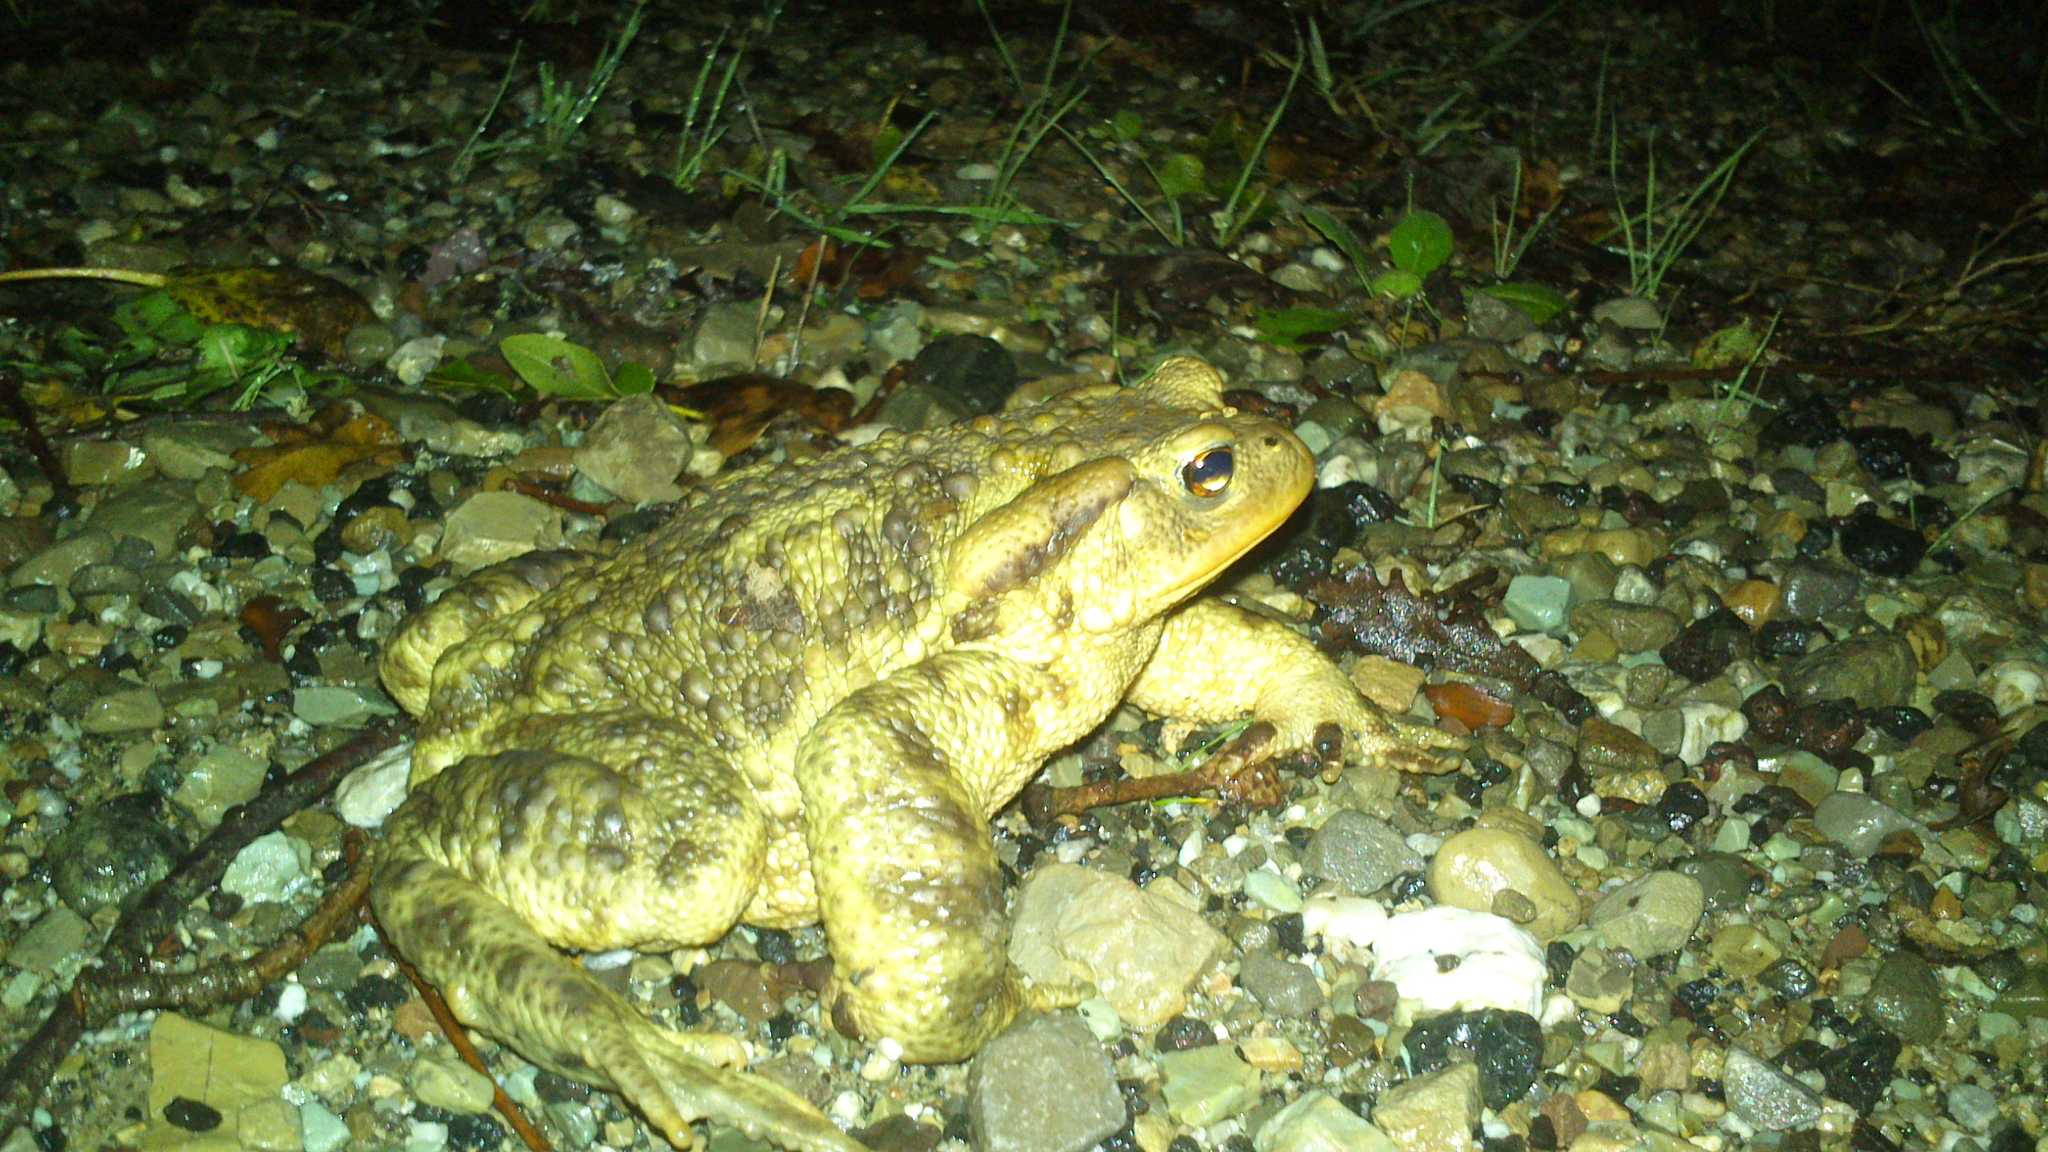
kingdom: Animalia
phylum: Chordata
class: Amphibia
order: Anura
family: Bufonidae
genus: Bufo
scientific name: Bufo bufo
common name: Common toad
